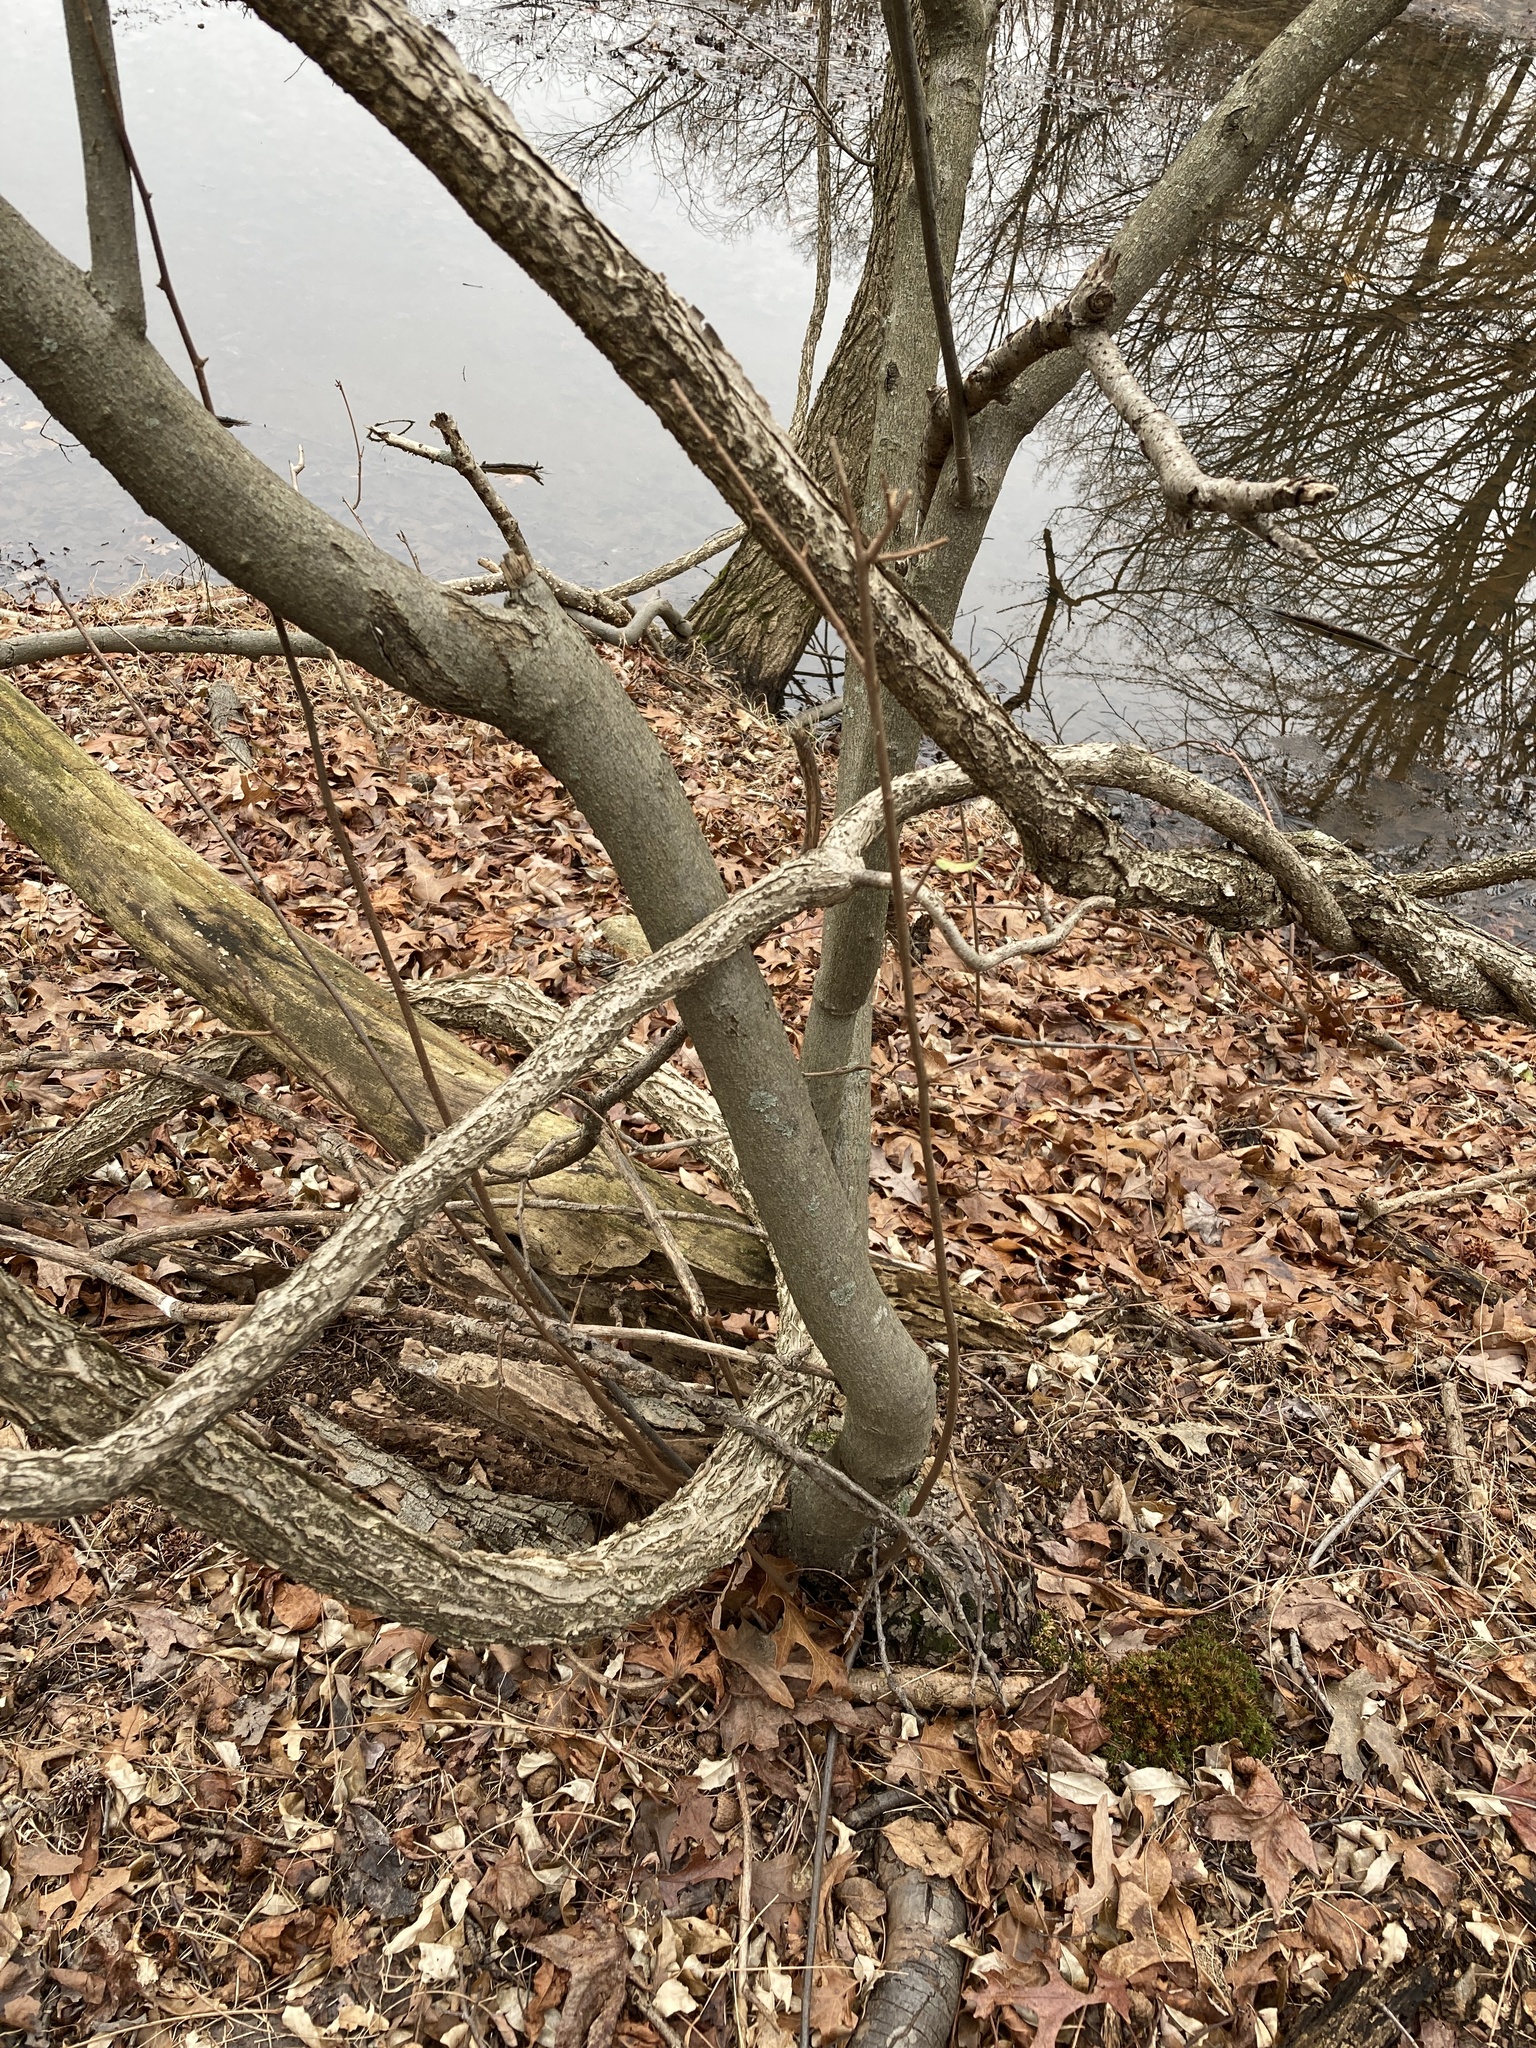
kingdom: Plantae
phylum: Tracheophyta
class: Magnoliopsida
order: Rosales
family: Elaeagnaceae
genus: Elaeagnus
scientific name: Elaeagnus umbellata
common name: Autumn olive
